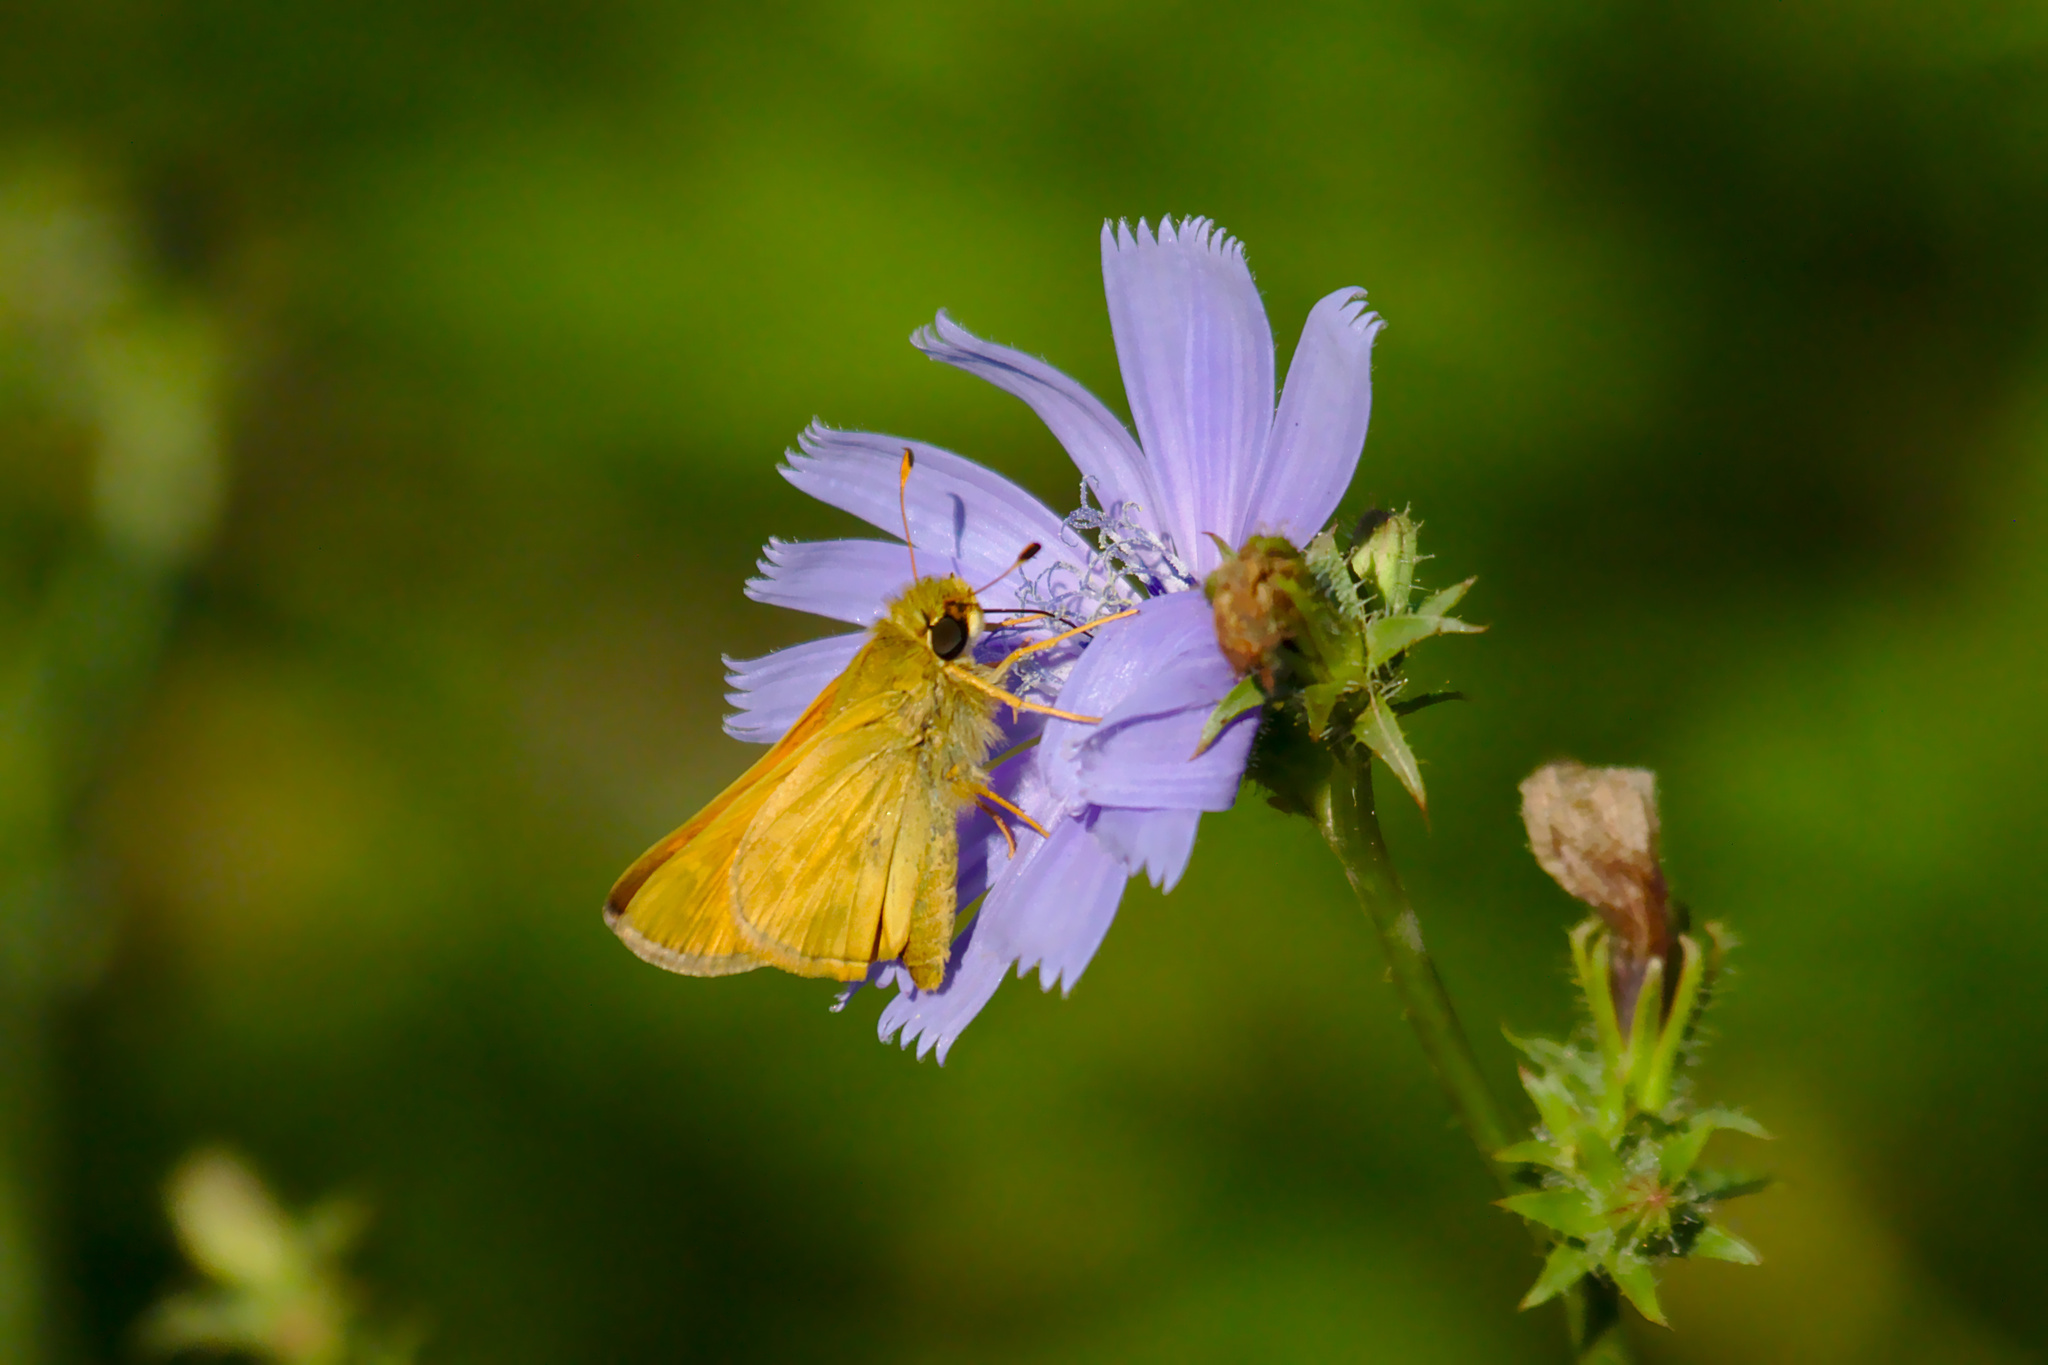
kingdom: Animalia
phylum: Arthropoda
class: Insecta
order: Lepidoptera
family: Hesperiidae
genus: Atalopedes
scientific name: Atalopedes
